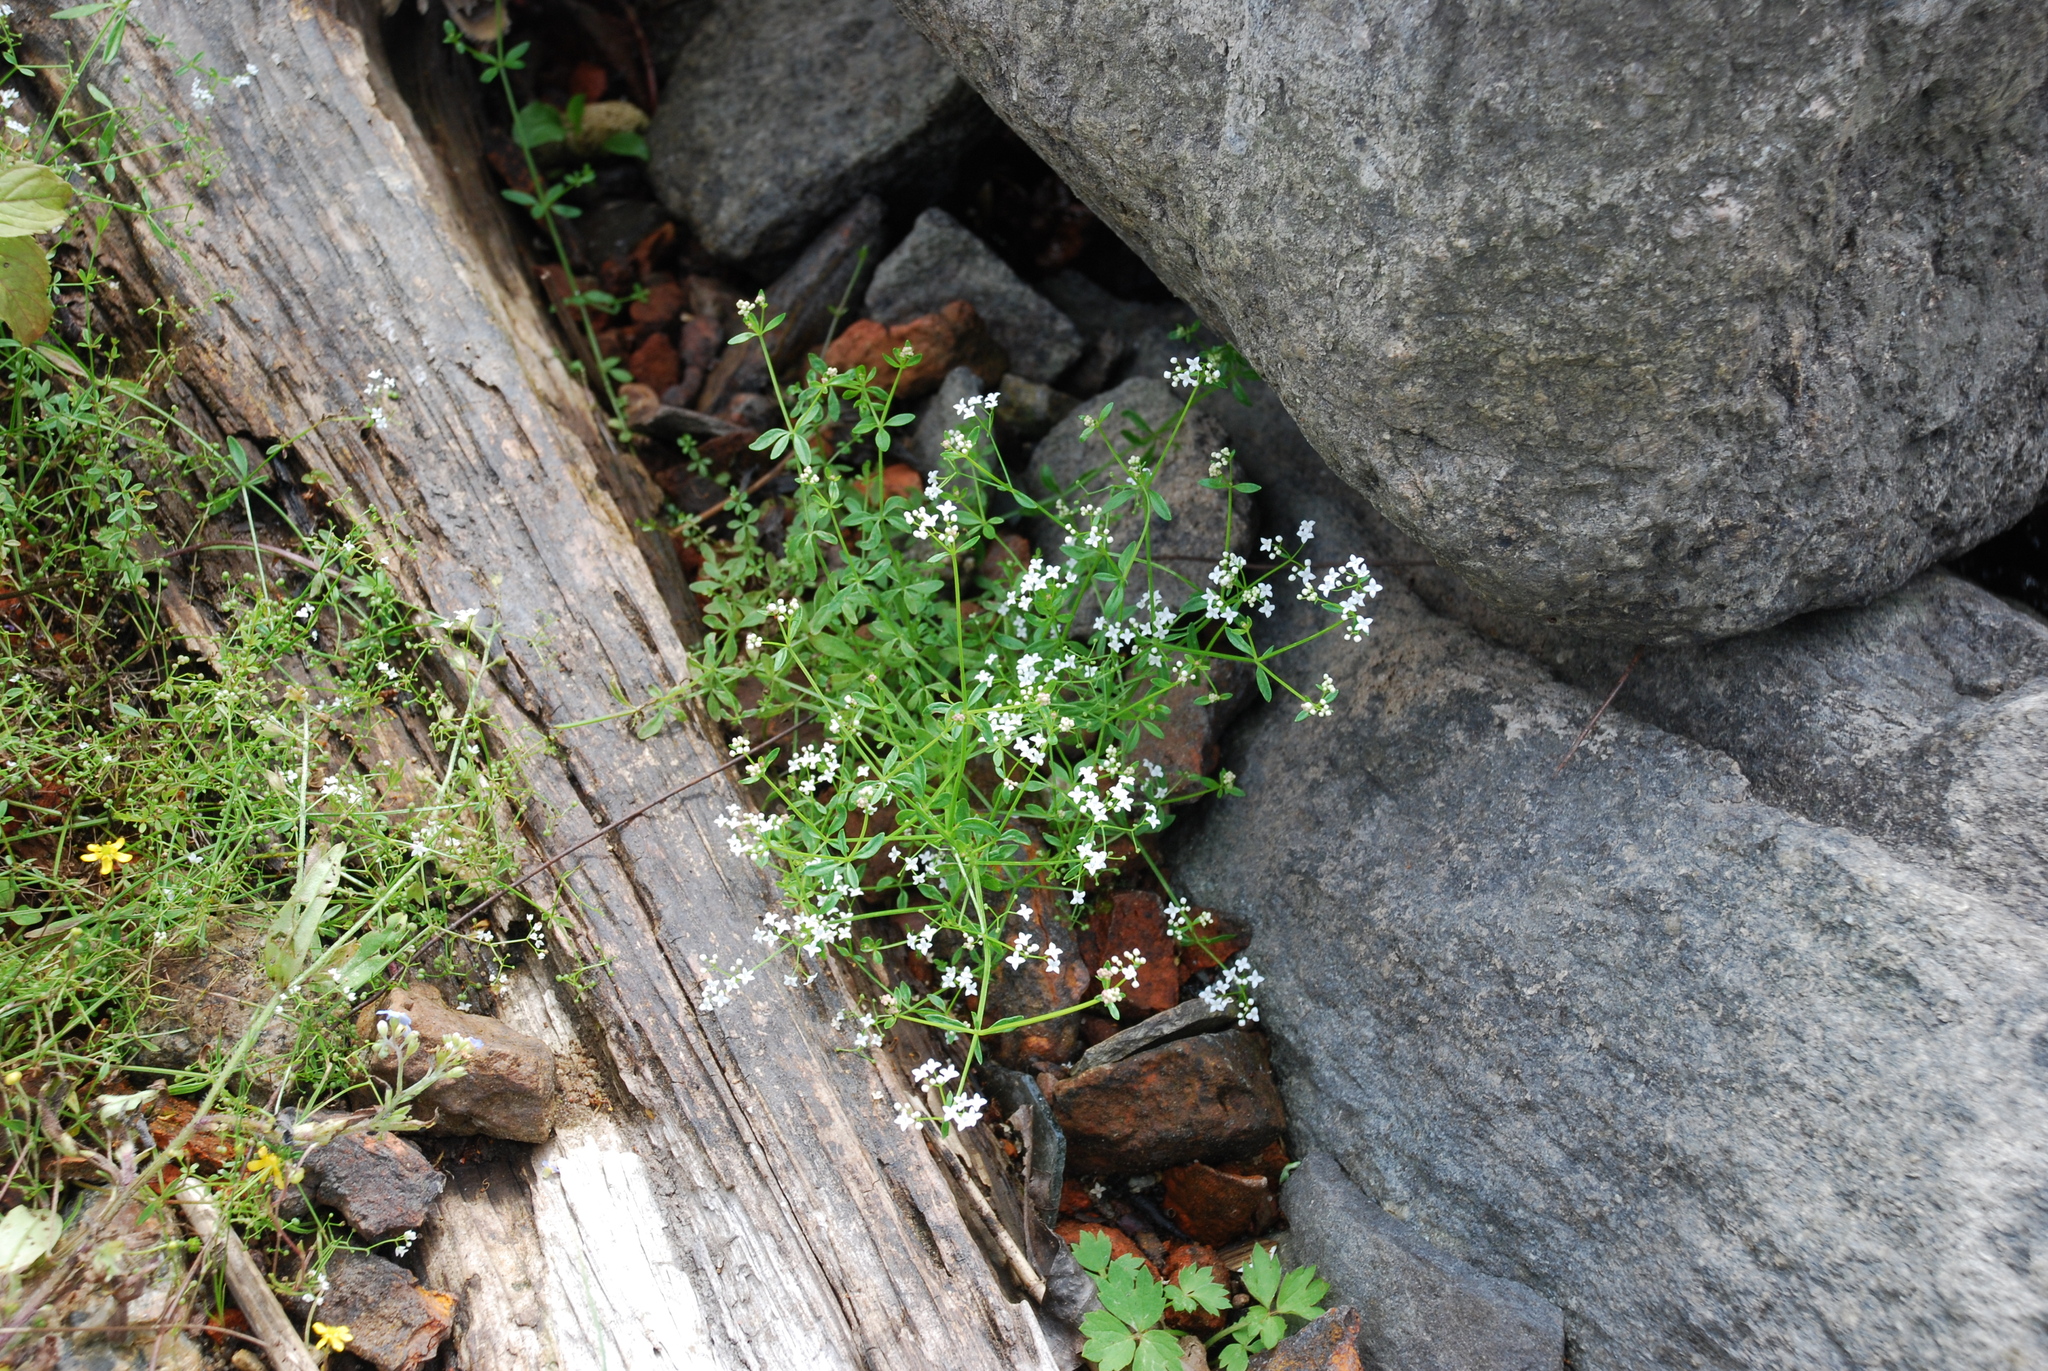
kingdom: Plantae
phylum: Tracheophyta
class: Magnoliopsida
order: Gentianales
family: Rubiaceae
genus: Galium
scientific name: Galium palustre
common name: Common marsh-bedstraw
